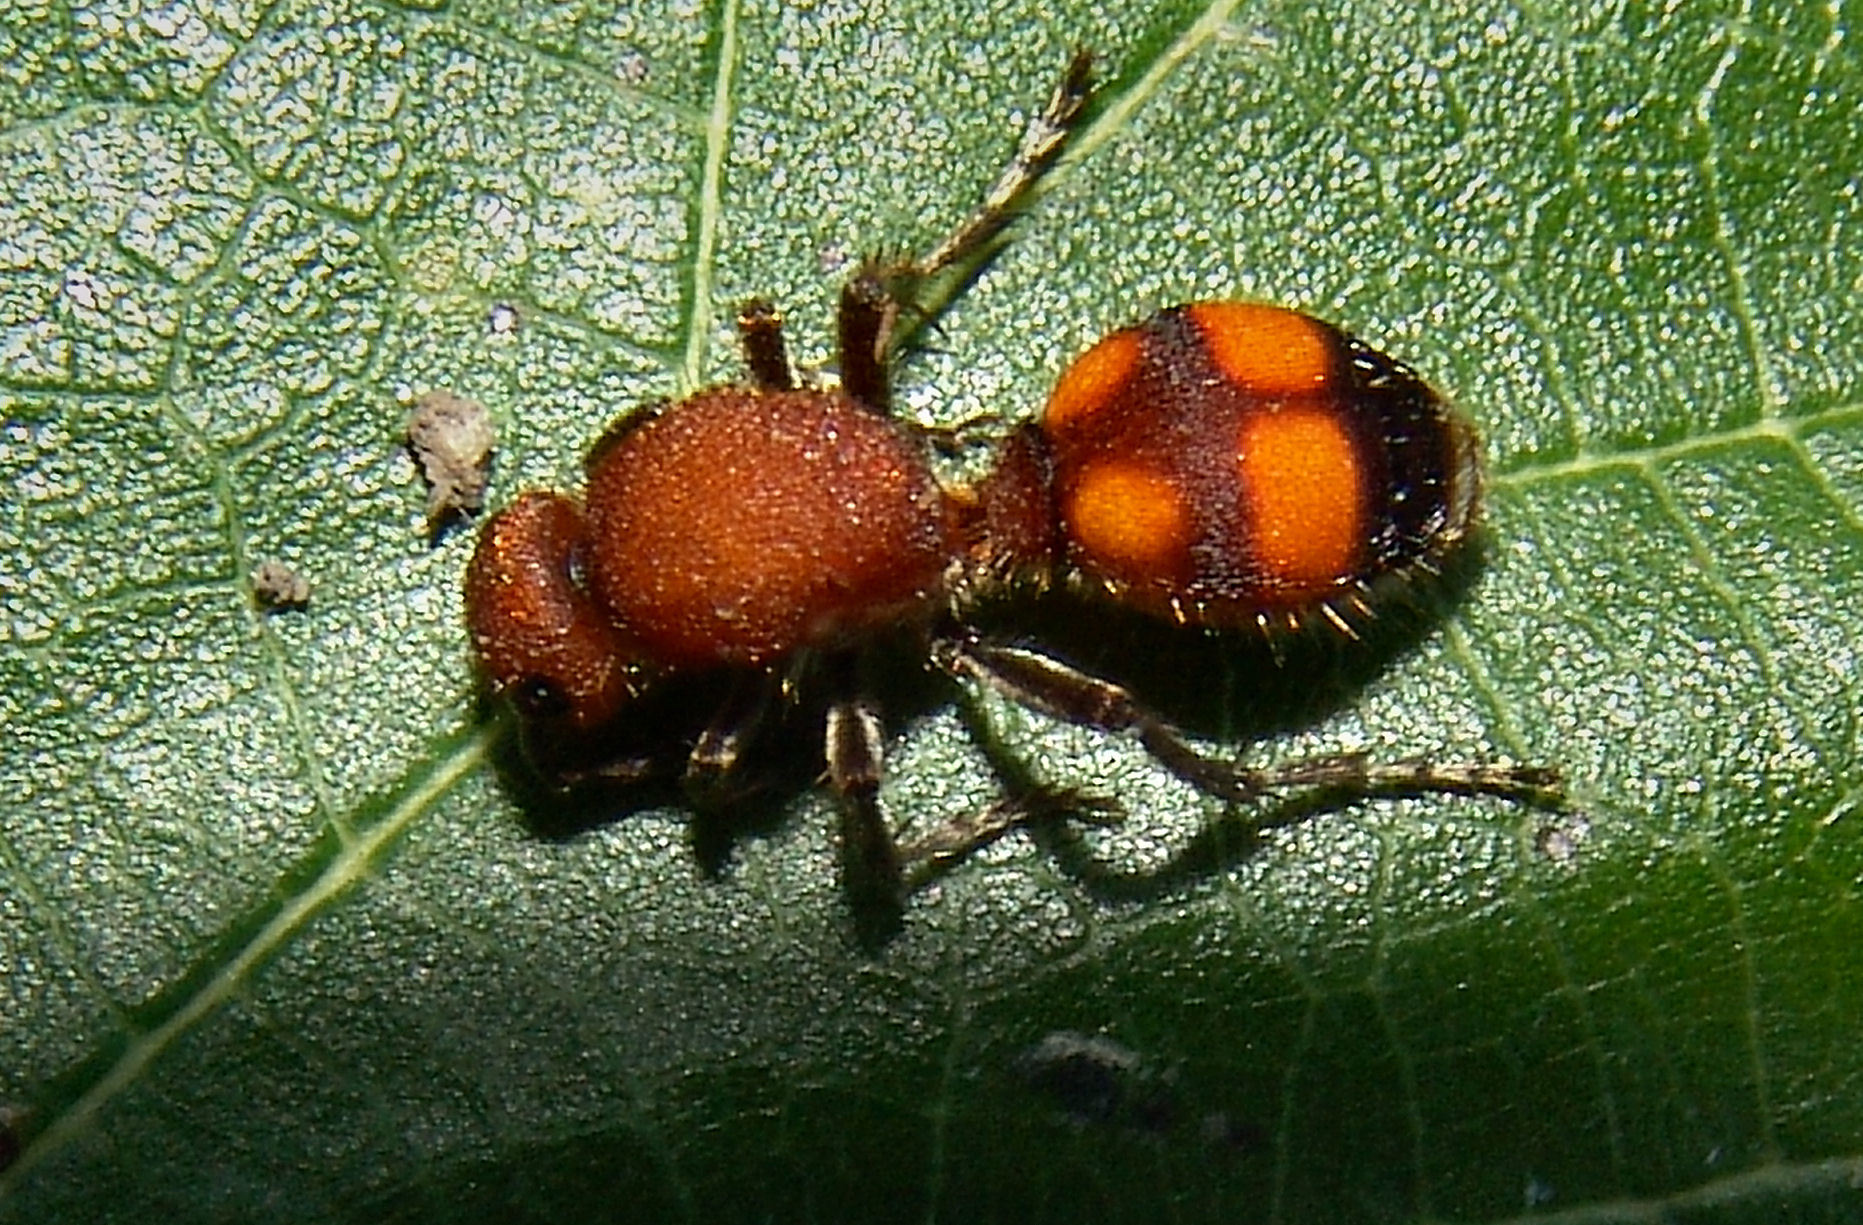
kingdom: Animalia
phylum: Arthropoda
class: Insecta
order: Hymenoptera
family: Mutillidae
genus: Dasymutilla
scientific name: Dasymutilla
